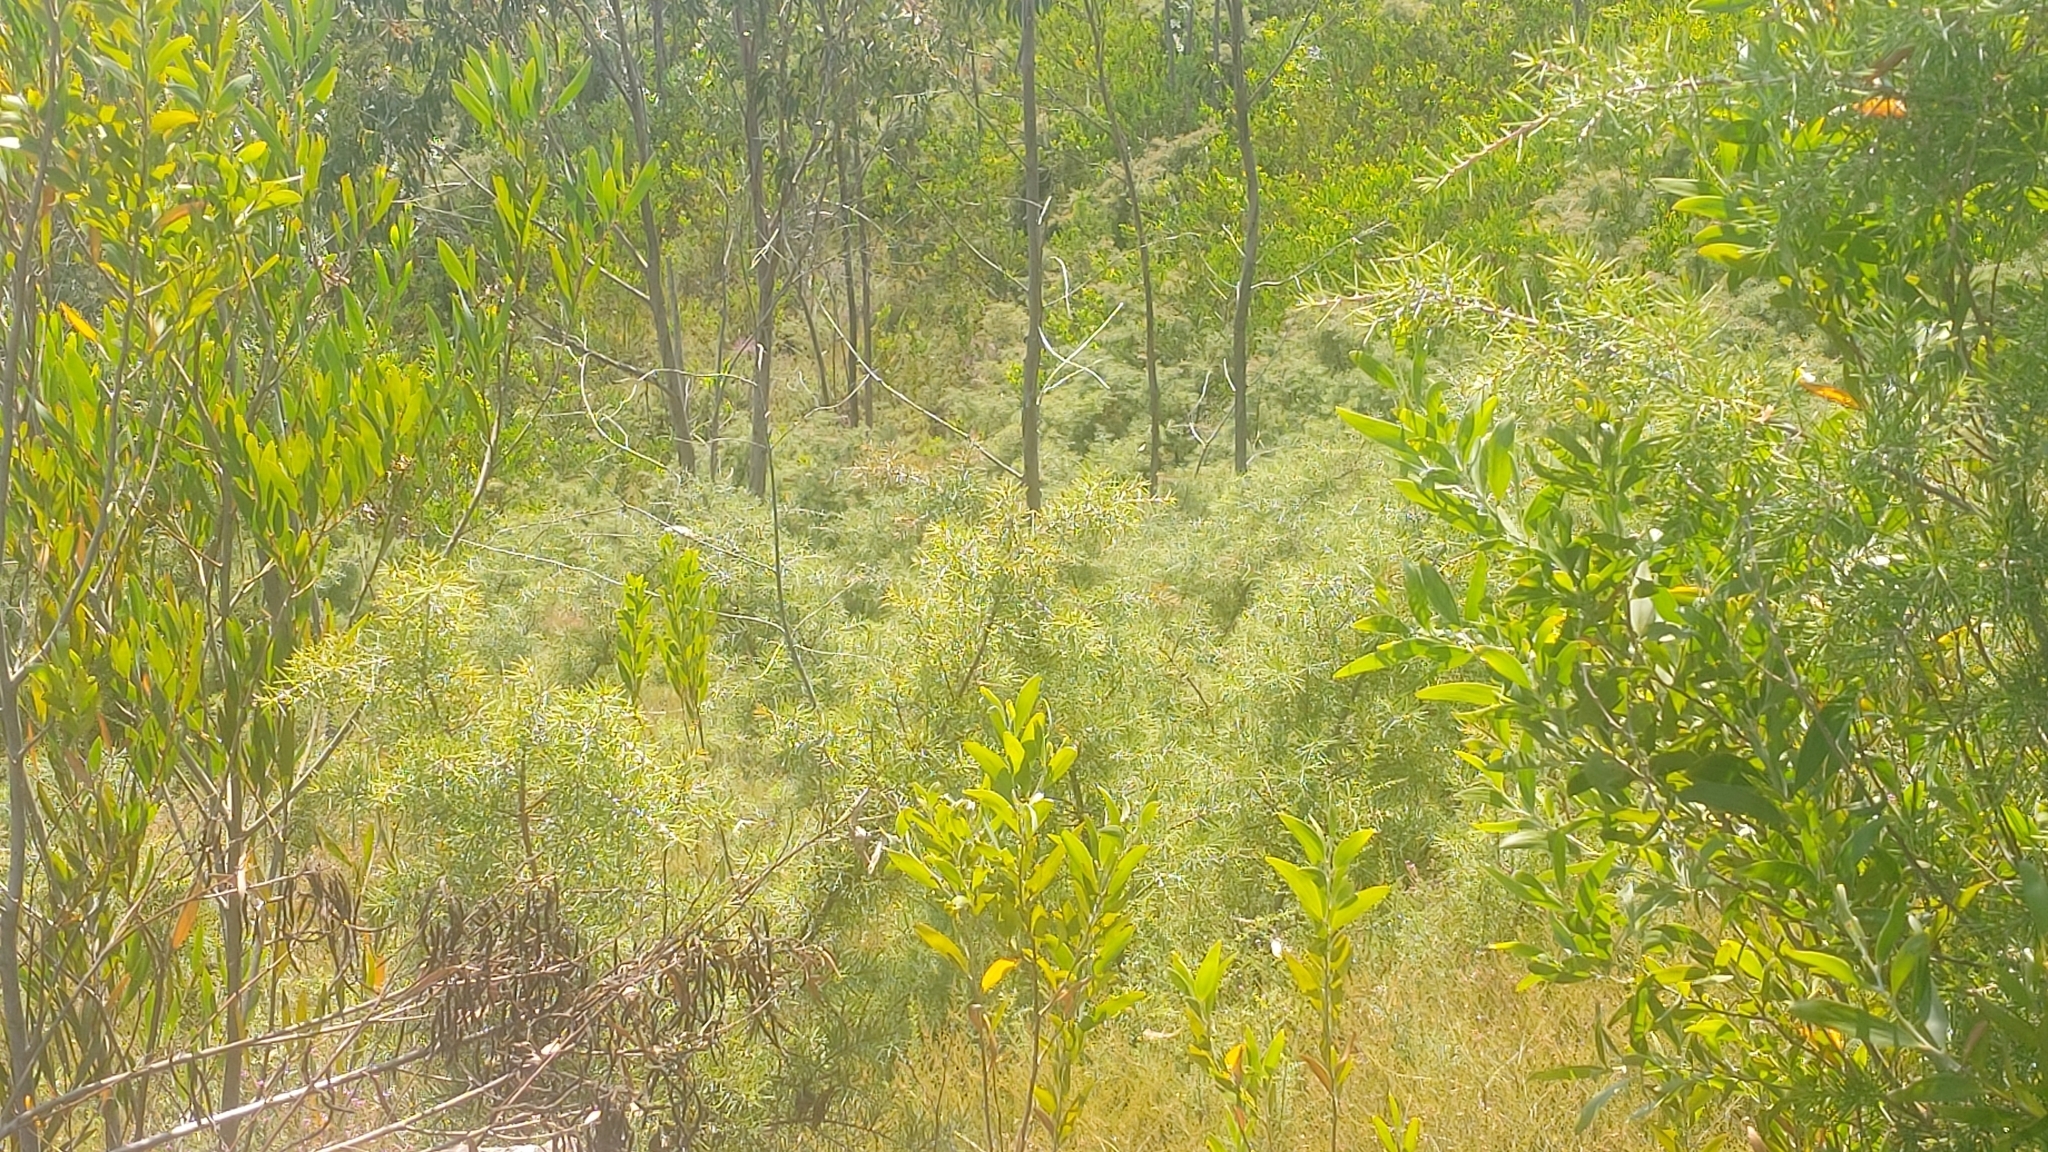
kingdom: Plantae
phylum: Tracheophyta
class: Magnoliopsida
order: Proteales
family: Proteaceae
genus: Hakea
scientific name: Hakea decurrens
